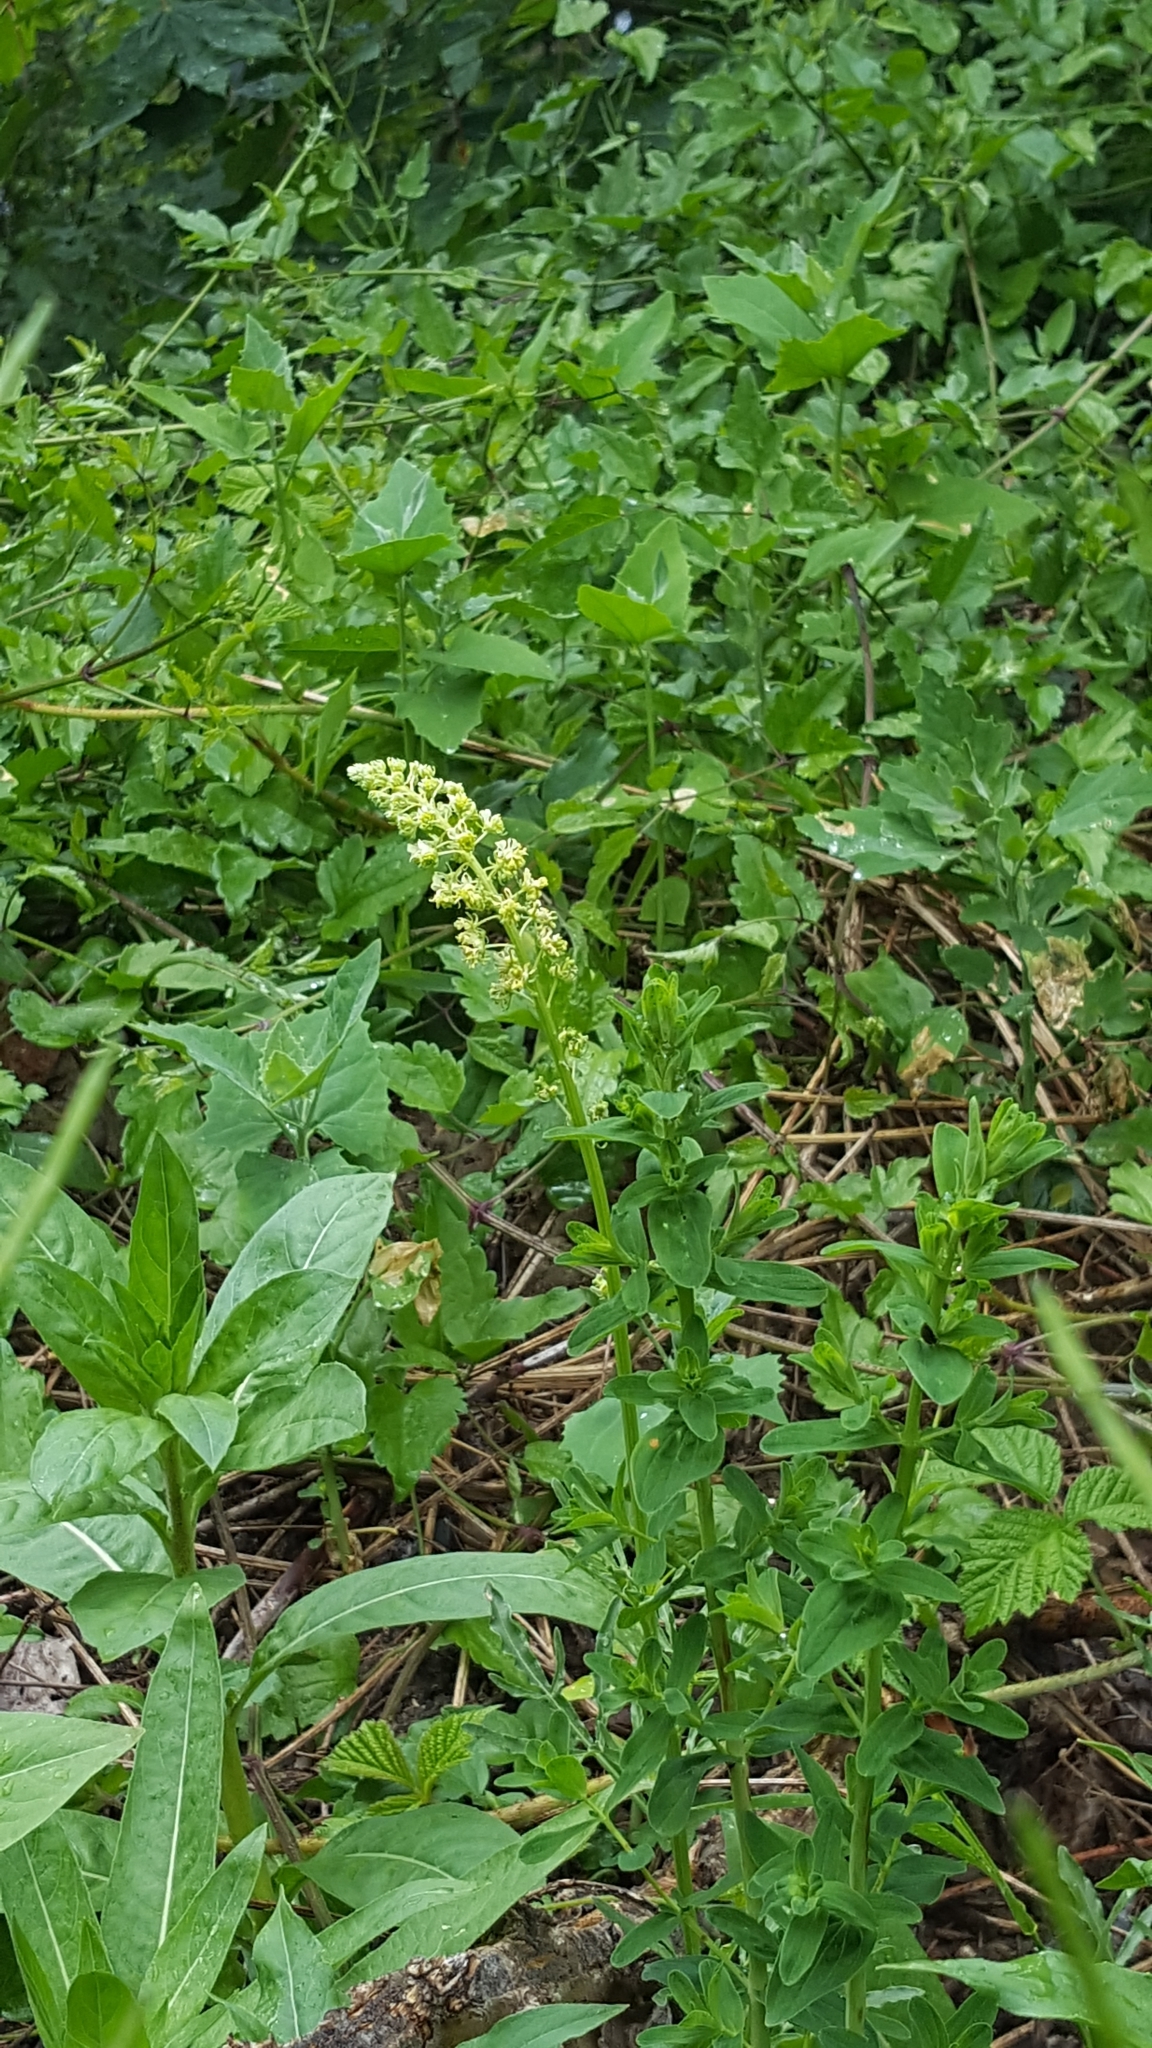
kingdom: Plantae
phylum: Tracheophyta
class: Magnoliopsida
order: Brassicales
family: Resedaceae
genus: Reseda
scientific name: Reseda lutea
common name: Wild mignonette
